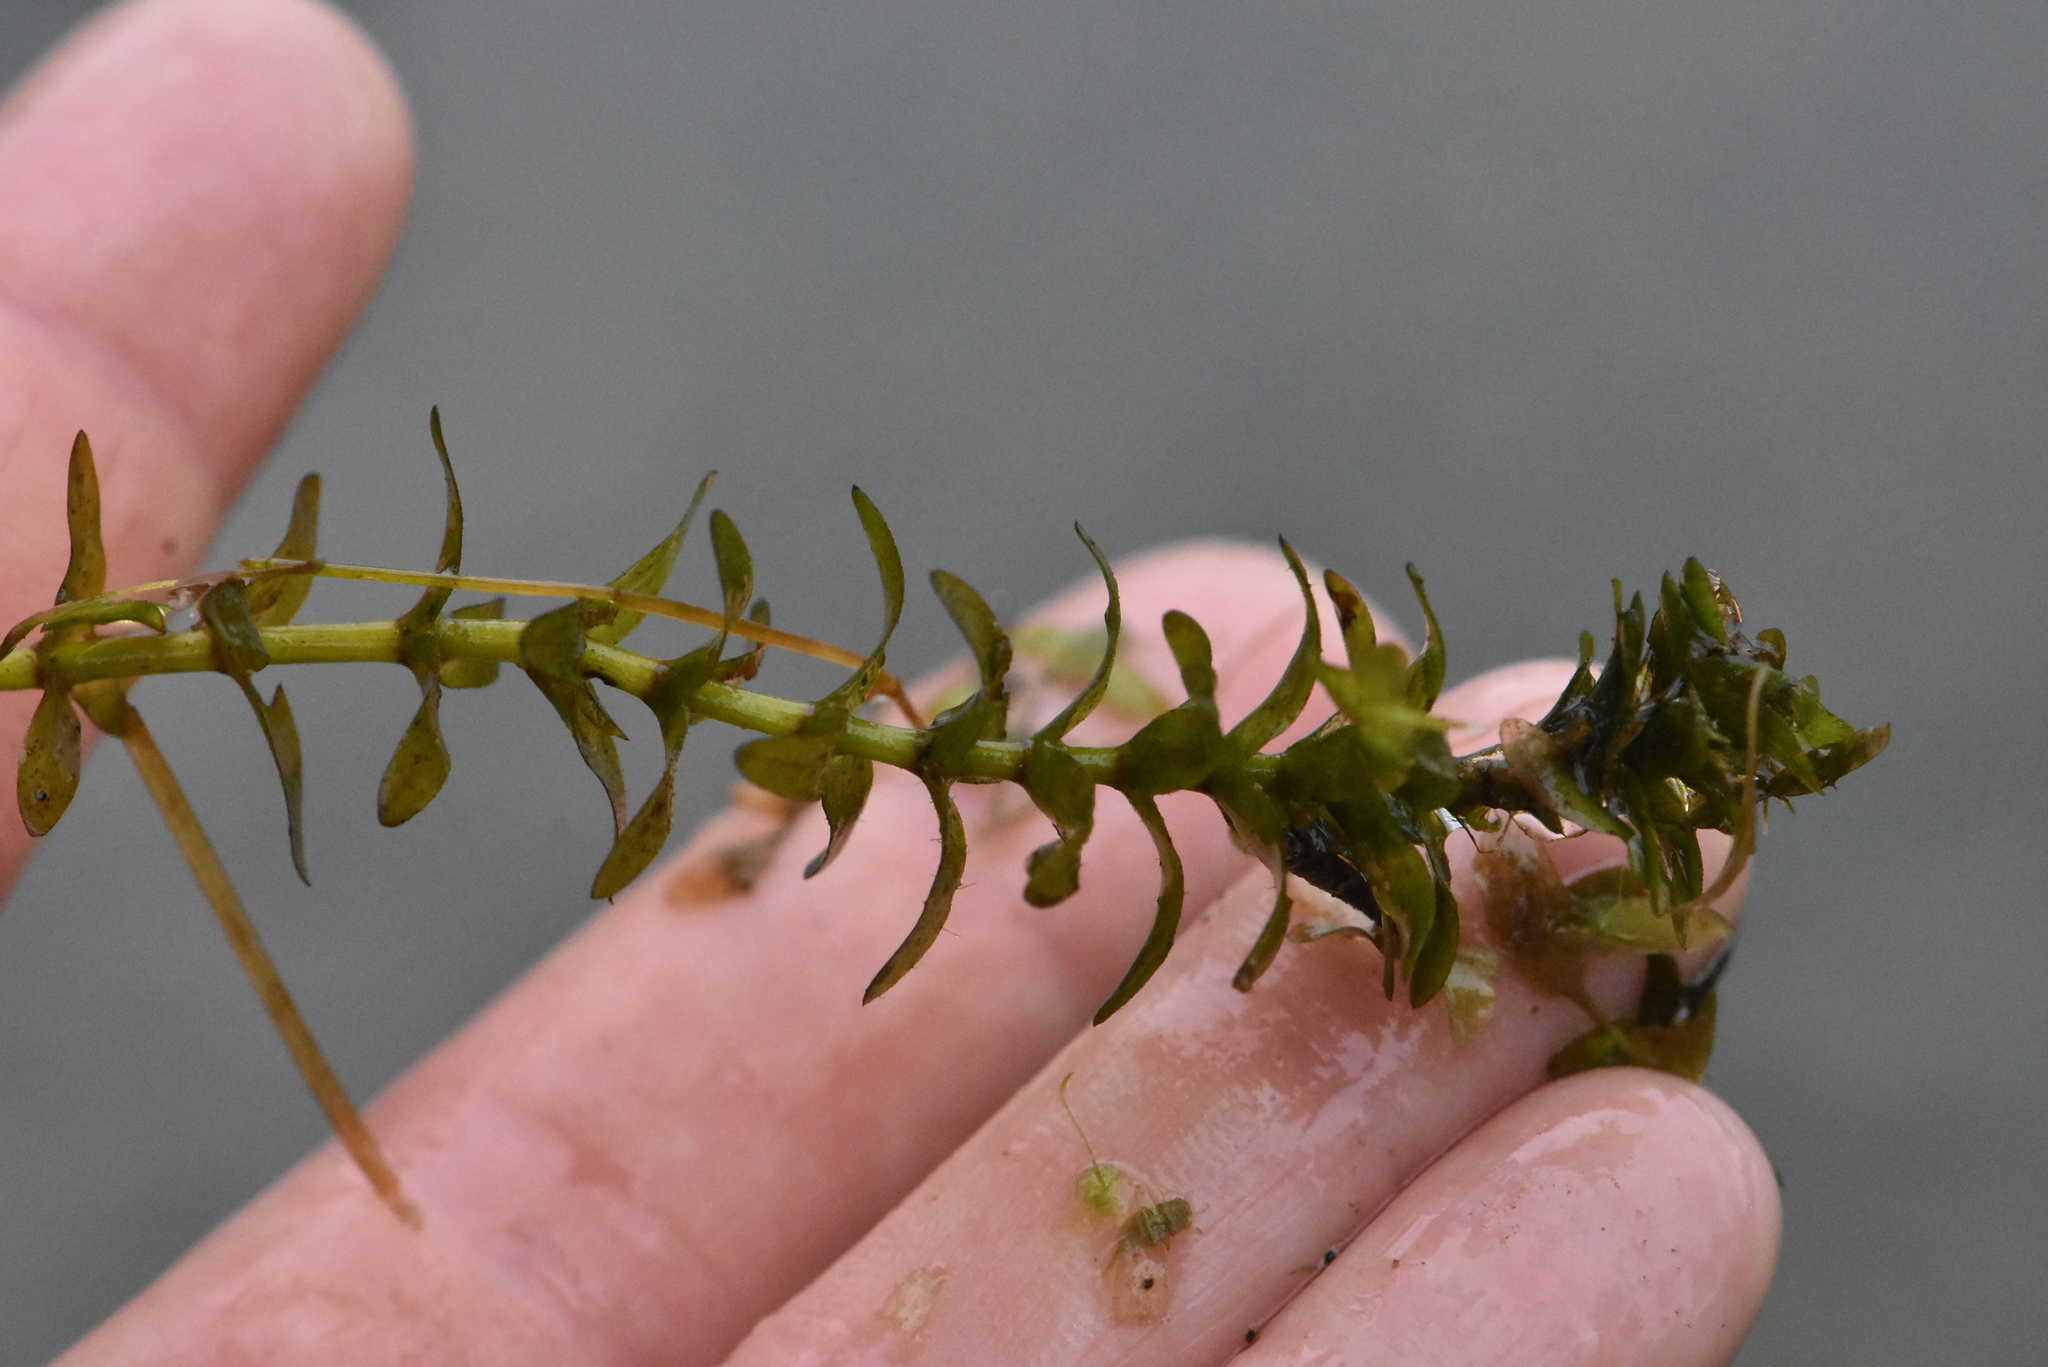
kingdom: Plantae
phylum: Tracheophyta
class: Liliopsida
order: Alismatales
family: Hydrocharitaceae
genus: Elodea
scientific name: Elodea canadensis
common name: Canadian waterweed
